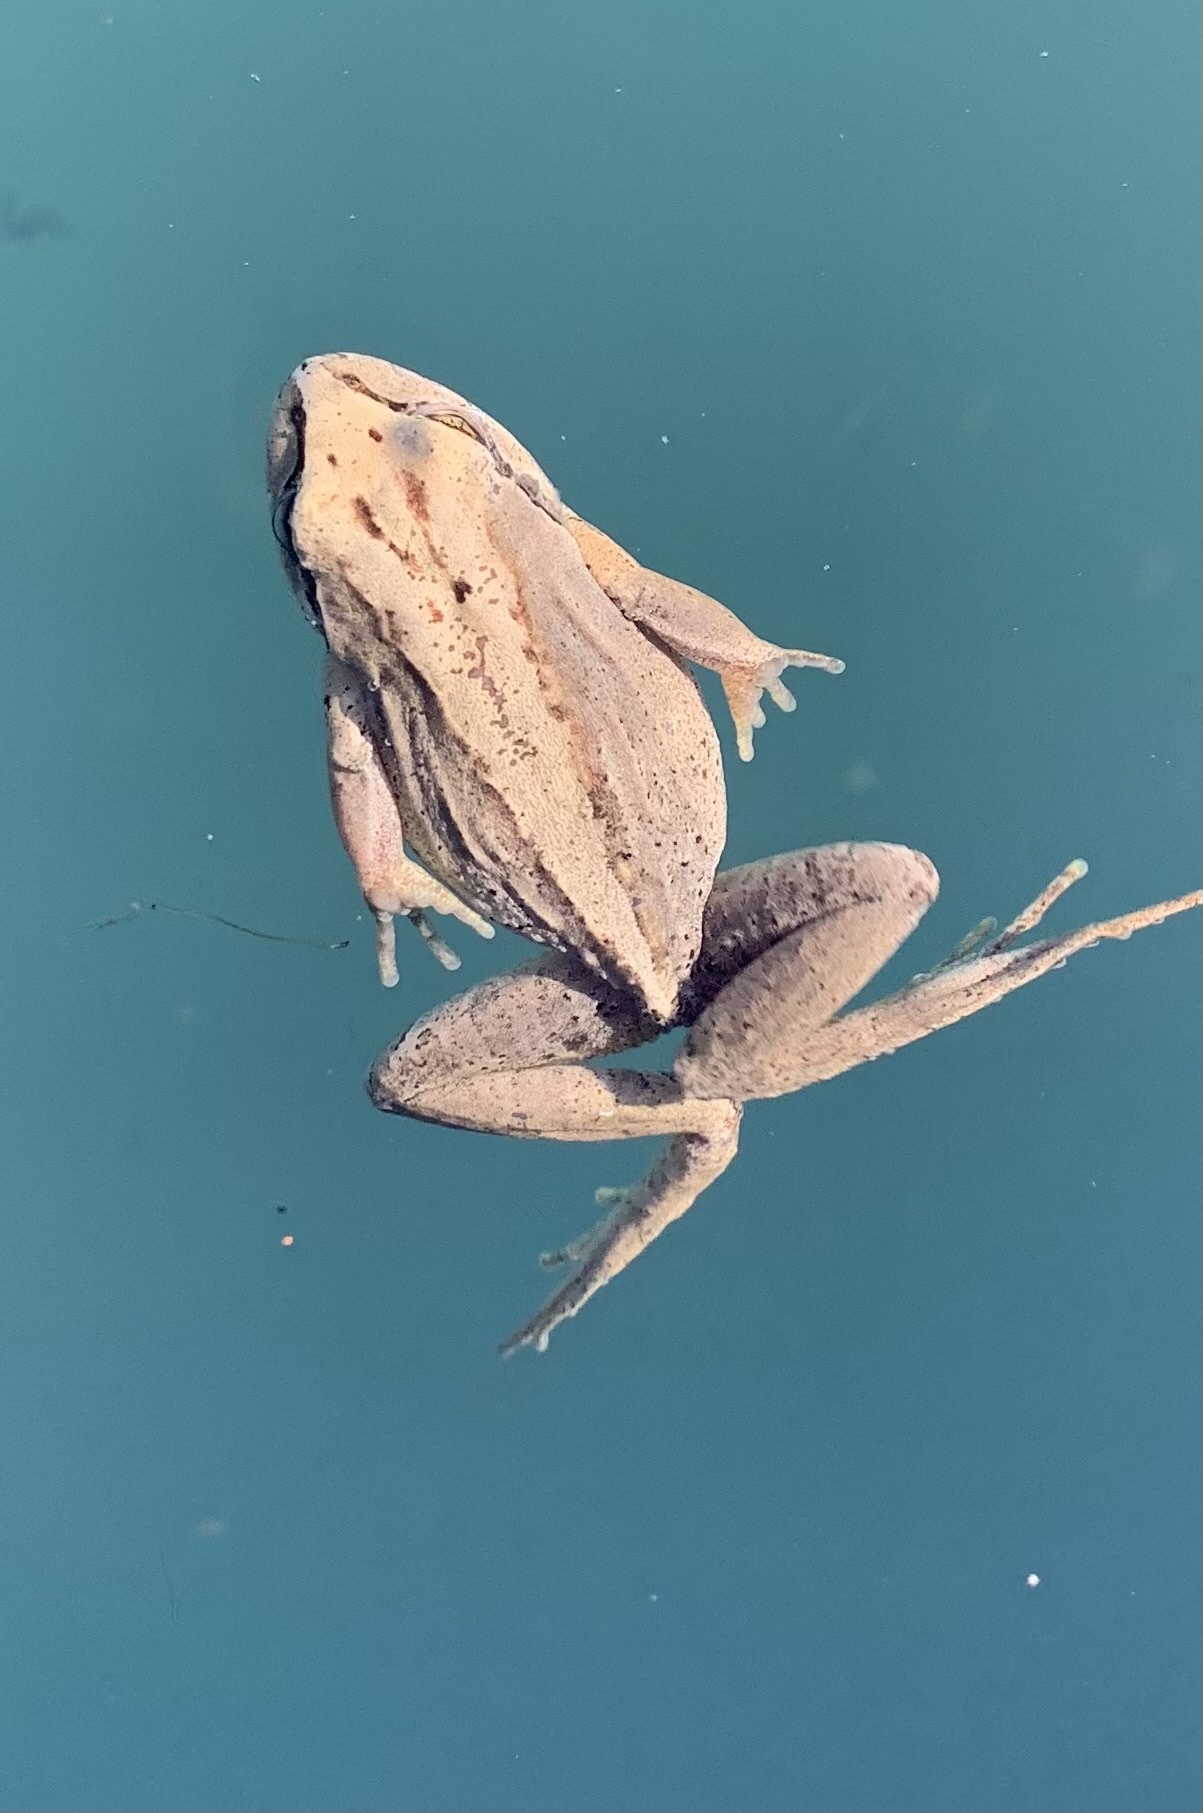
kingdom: Animalia
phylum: Chordata
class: Amphibia
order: Anura
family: Batrachylidae
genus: Batrachyla
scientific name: Batrachyla taeniata
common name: Banded wood frog
